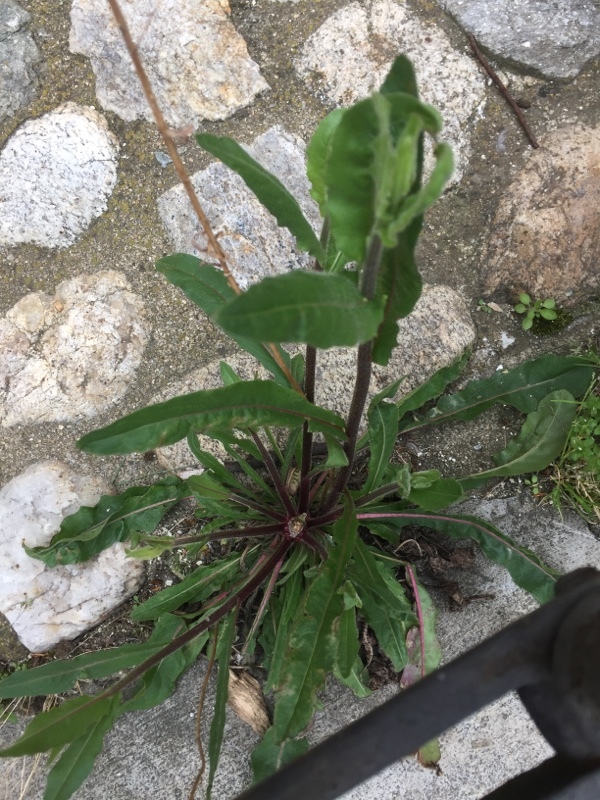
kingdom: Plantae
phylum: Tracheophyta
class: Magnoliopsida
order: Asterales
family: Asteraceae
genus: Picris
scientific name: Picris hieracioides
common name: Hawkweed oxtongue
